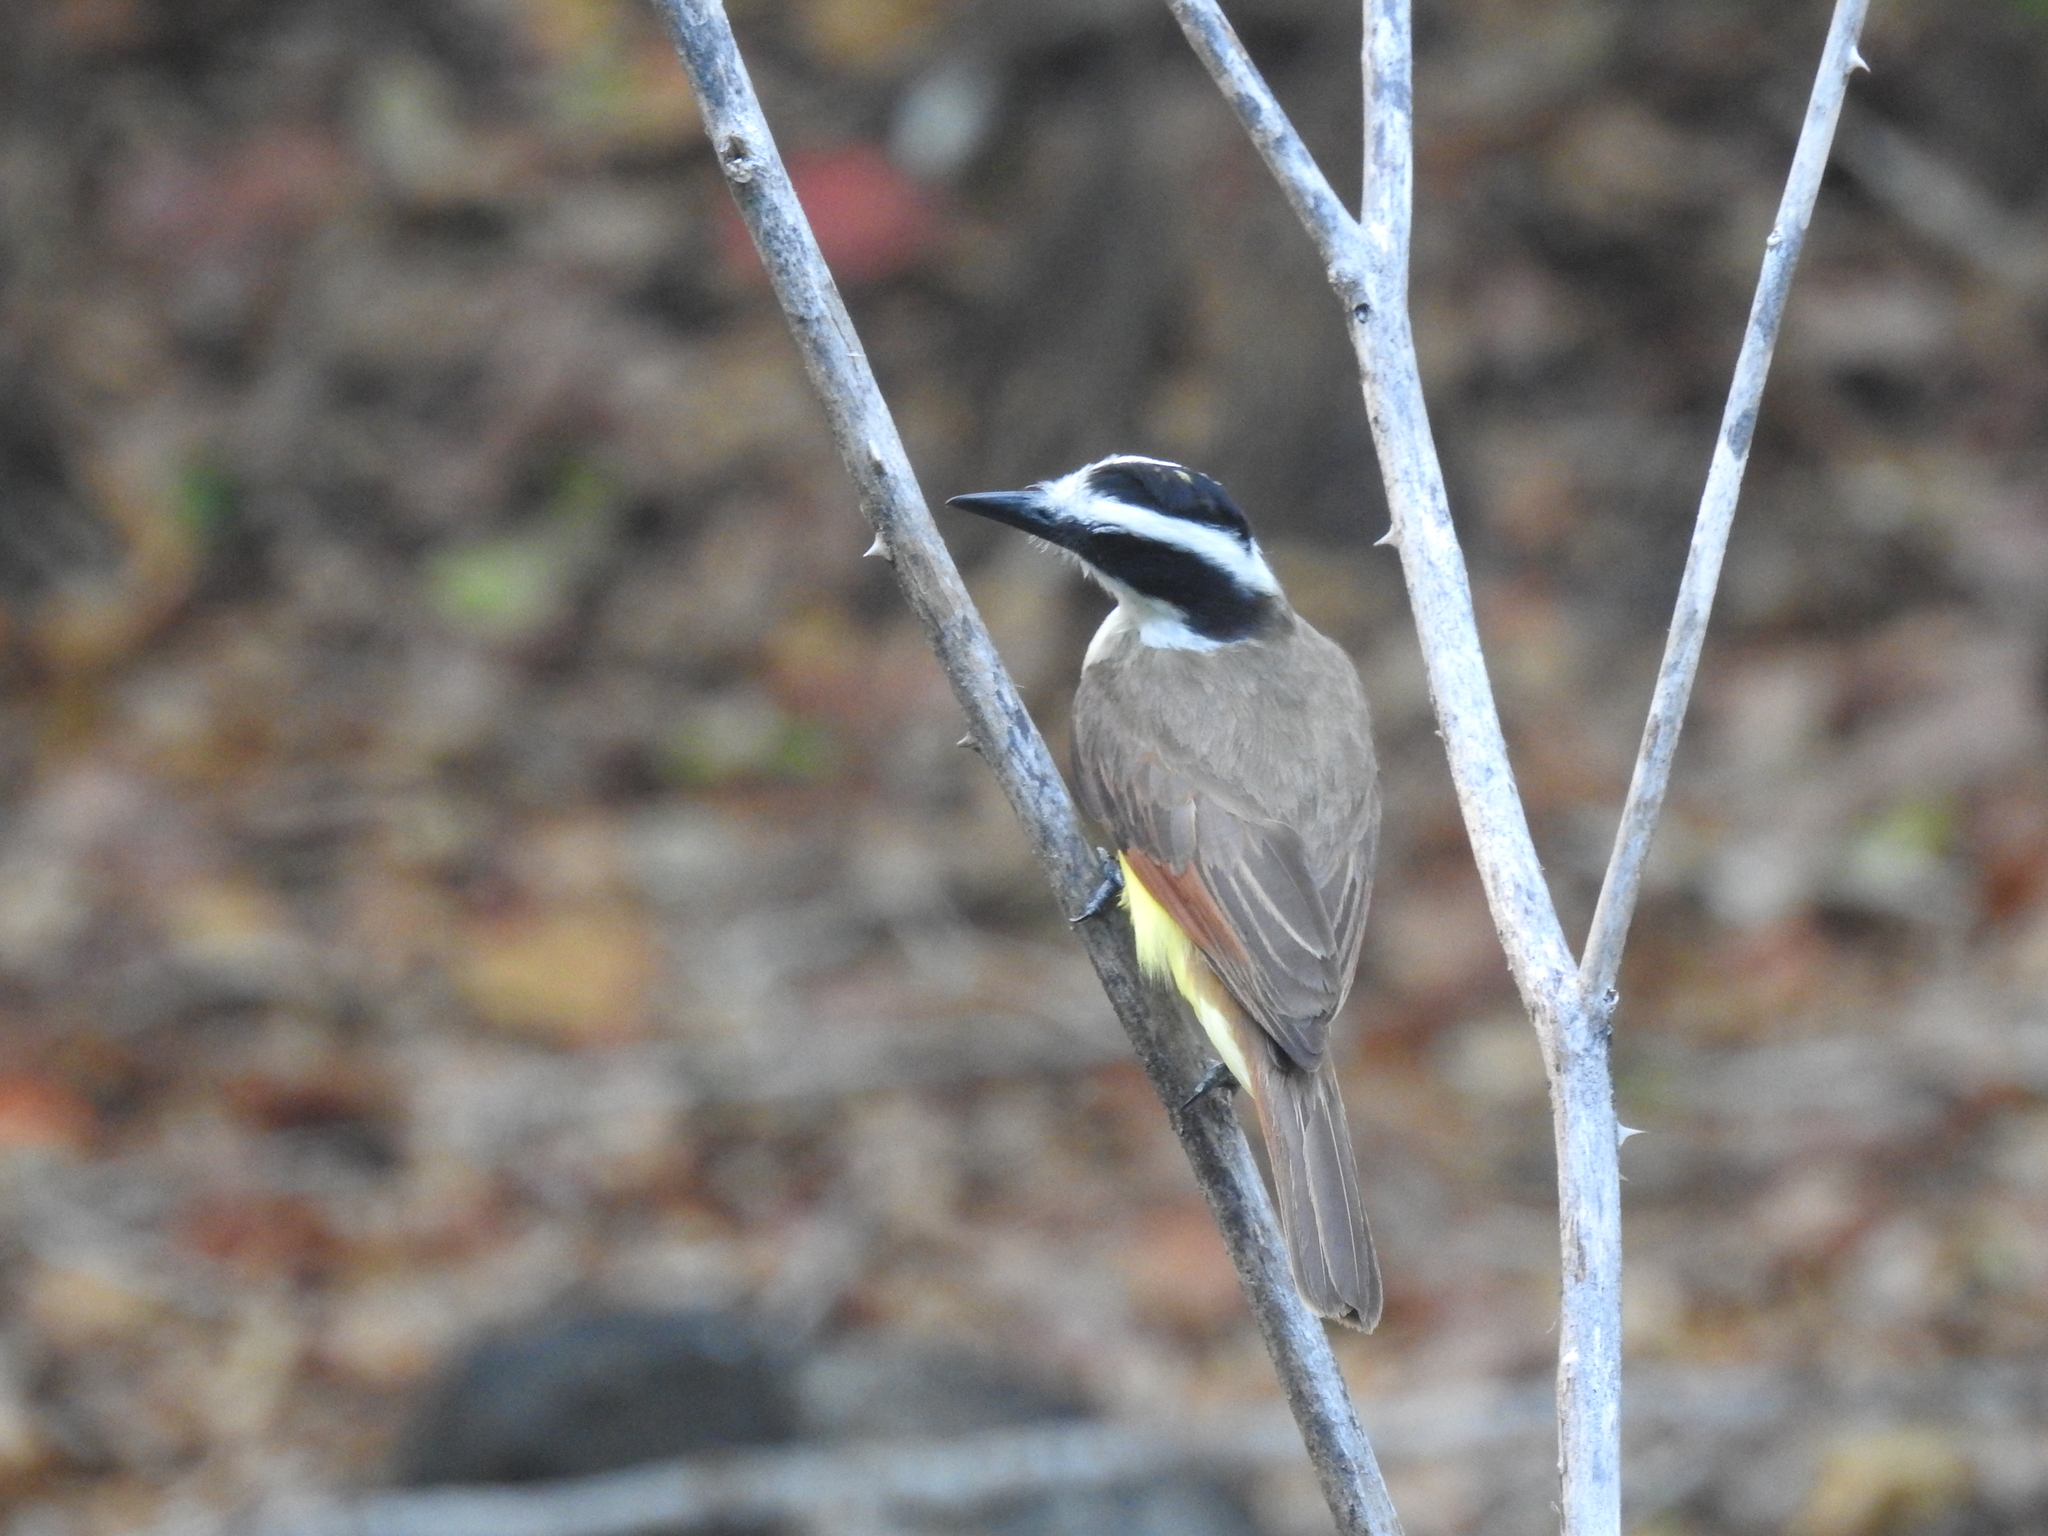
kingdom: Animalia
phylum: Chordata
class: Aves
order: Passeriformes
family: Tyrannidae
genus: Pitangus
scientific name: Pitangus sulphuratus
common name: Great kiskadee
